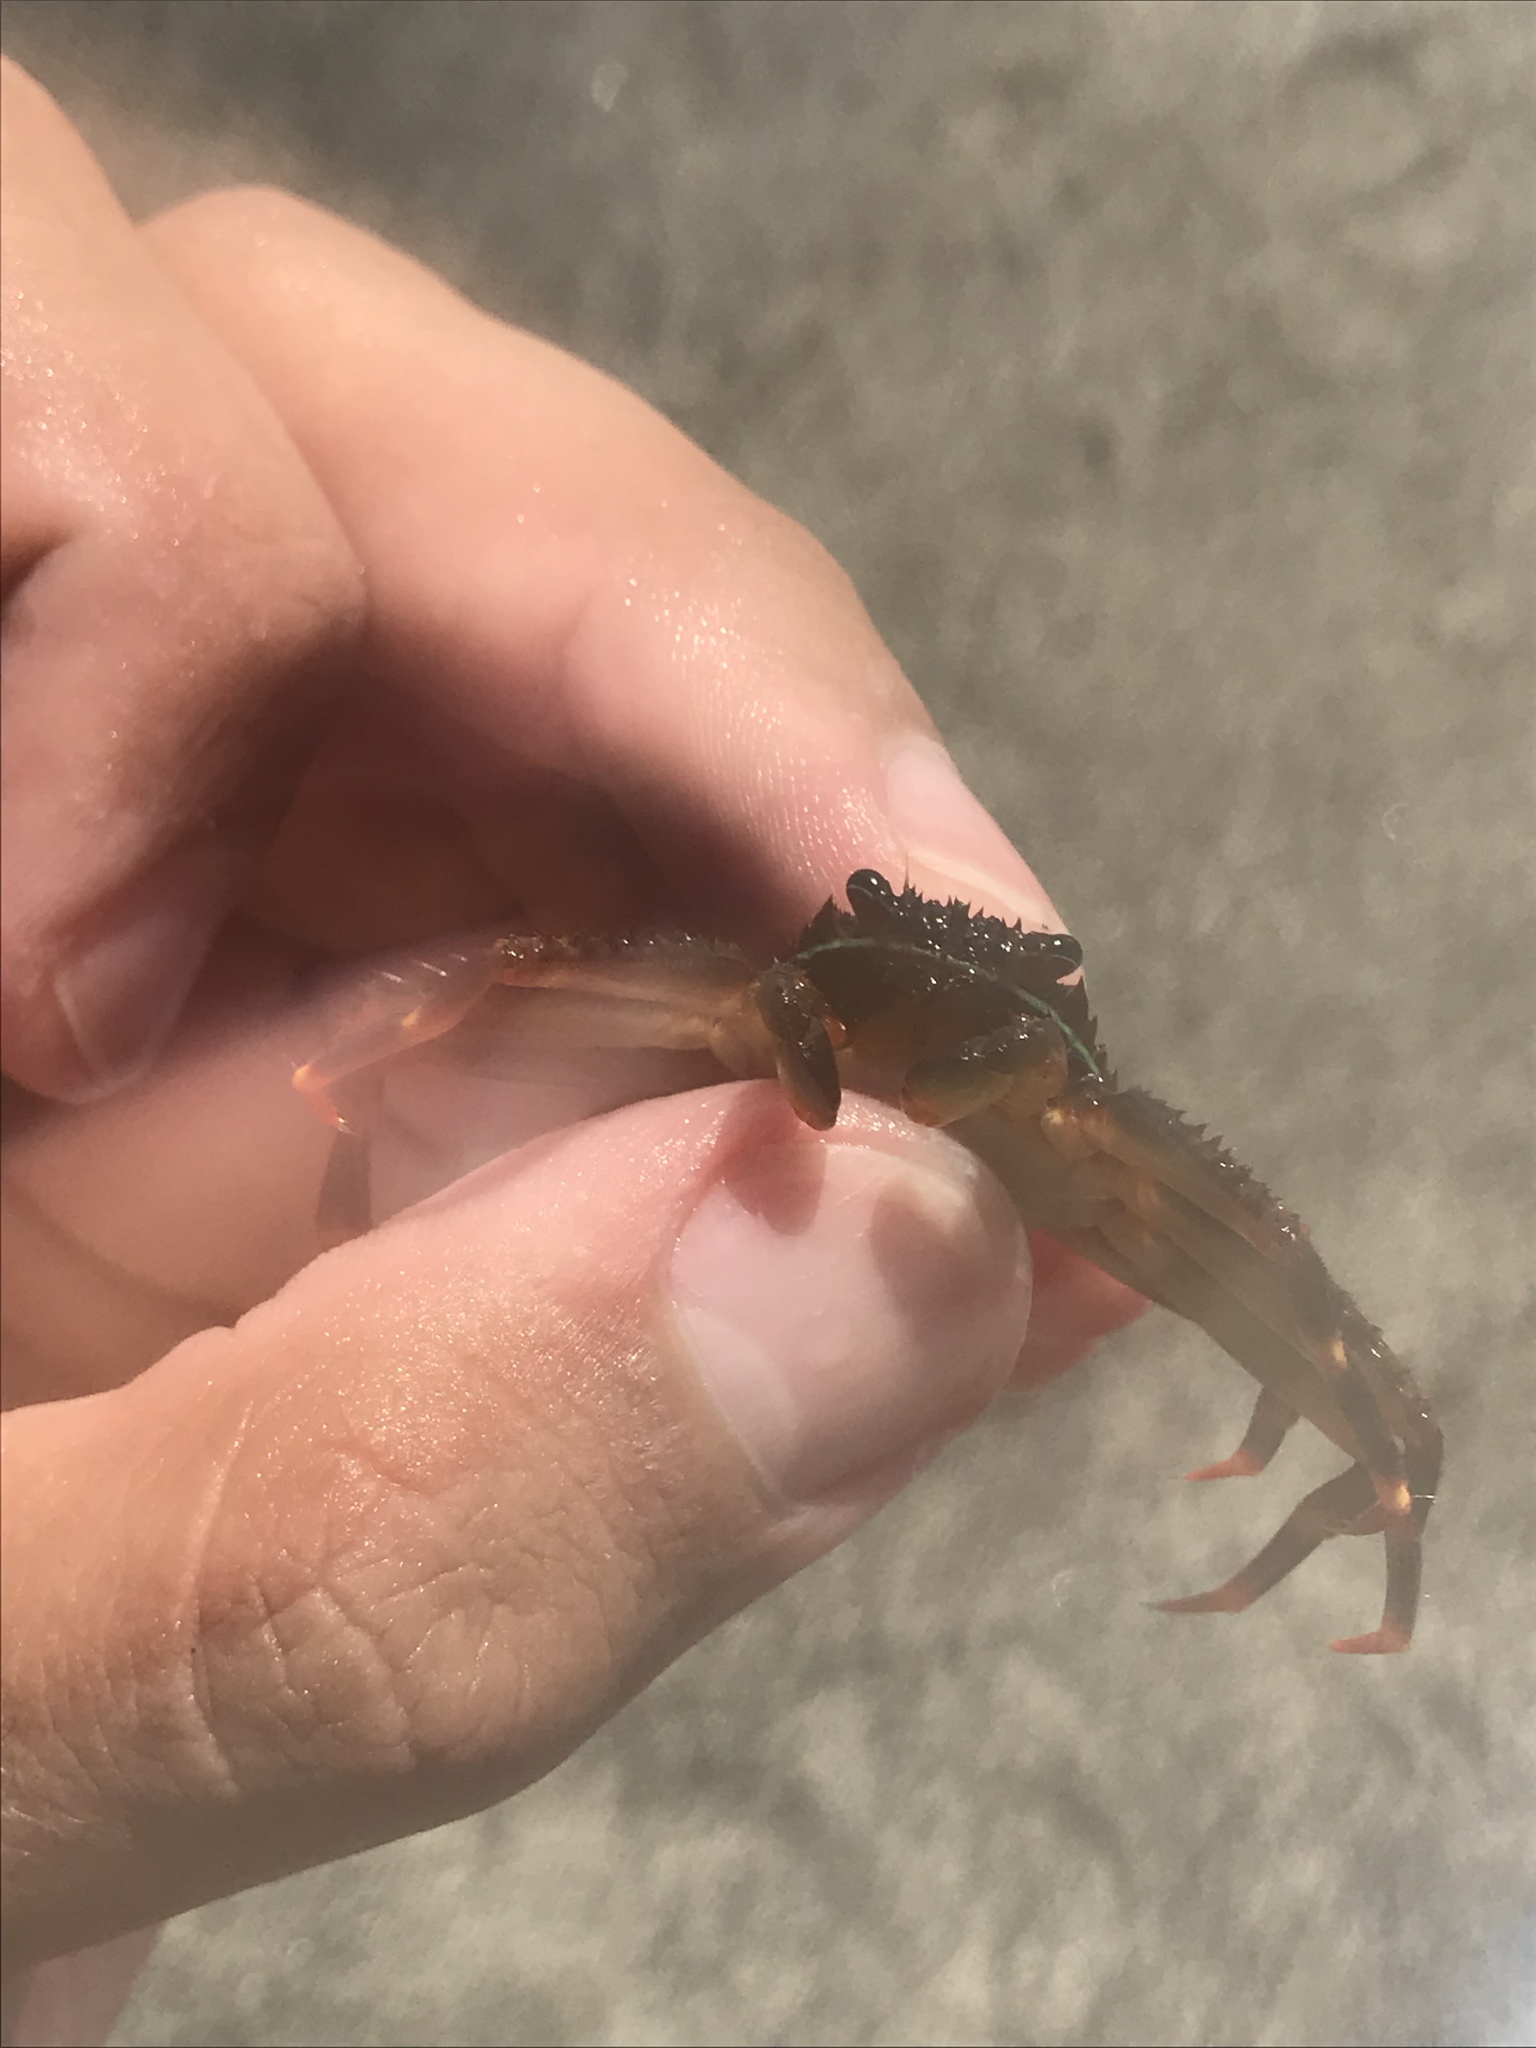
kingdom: Animalia
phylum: Arthropoda
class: Malacostraca
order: Decapoda
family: Percnidae
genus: Percnon
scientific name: Percnon gibbesi
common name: Nimble spray crab
